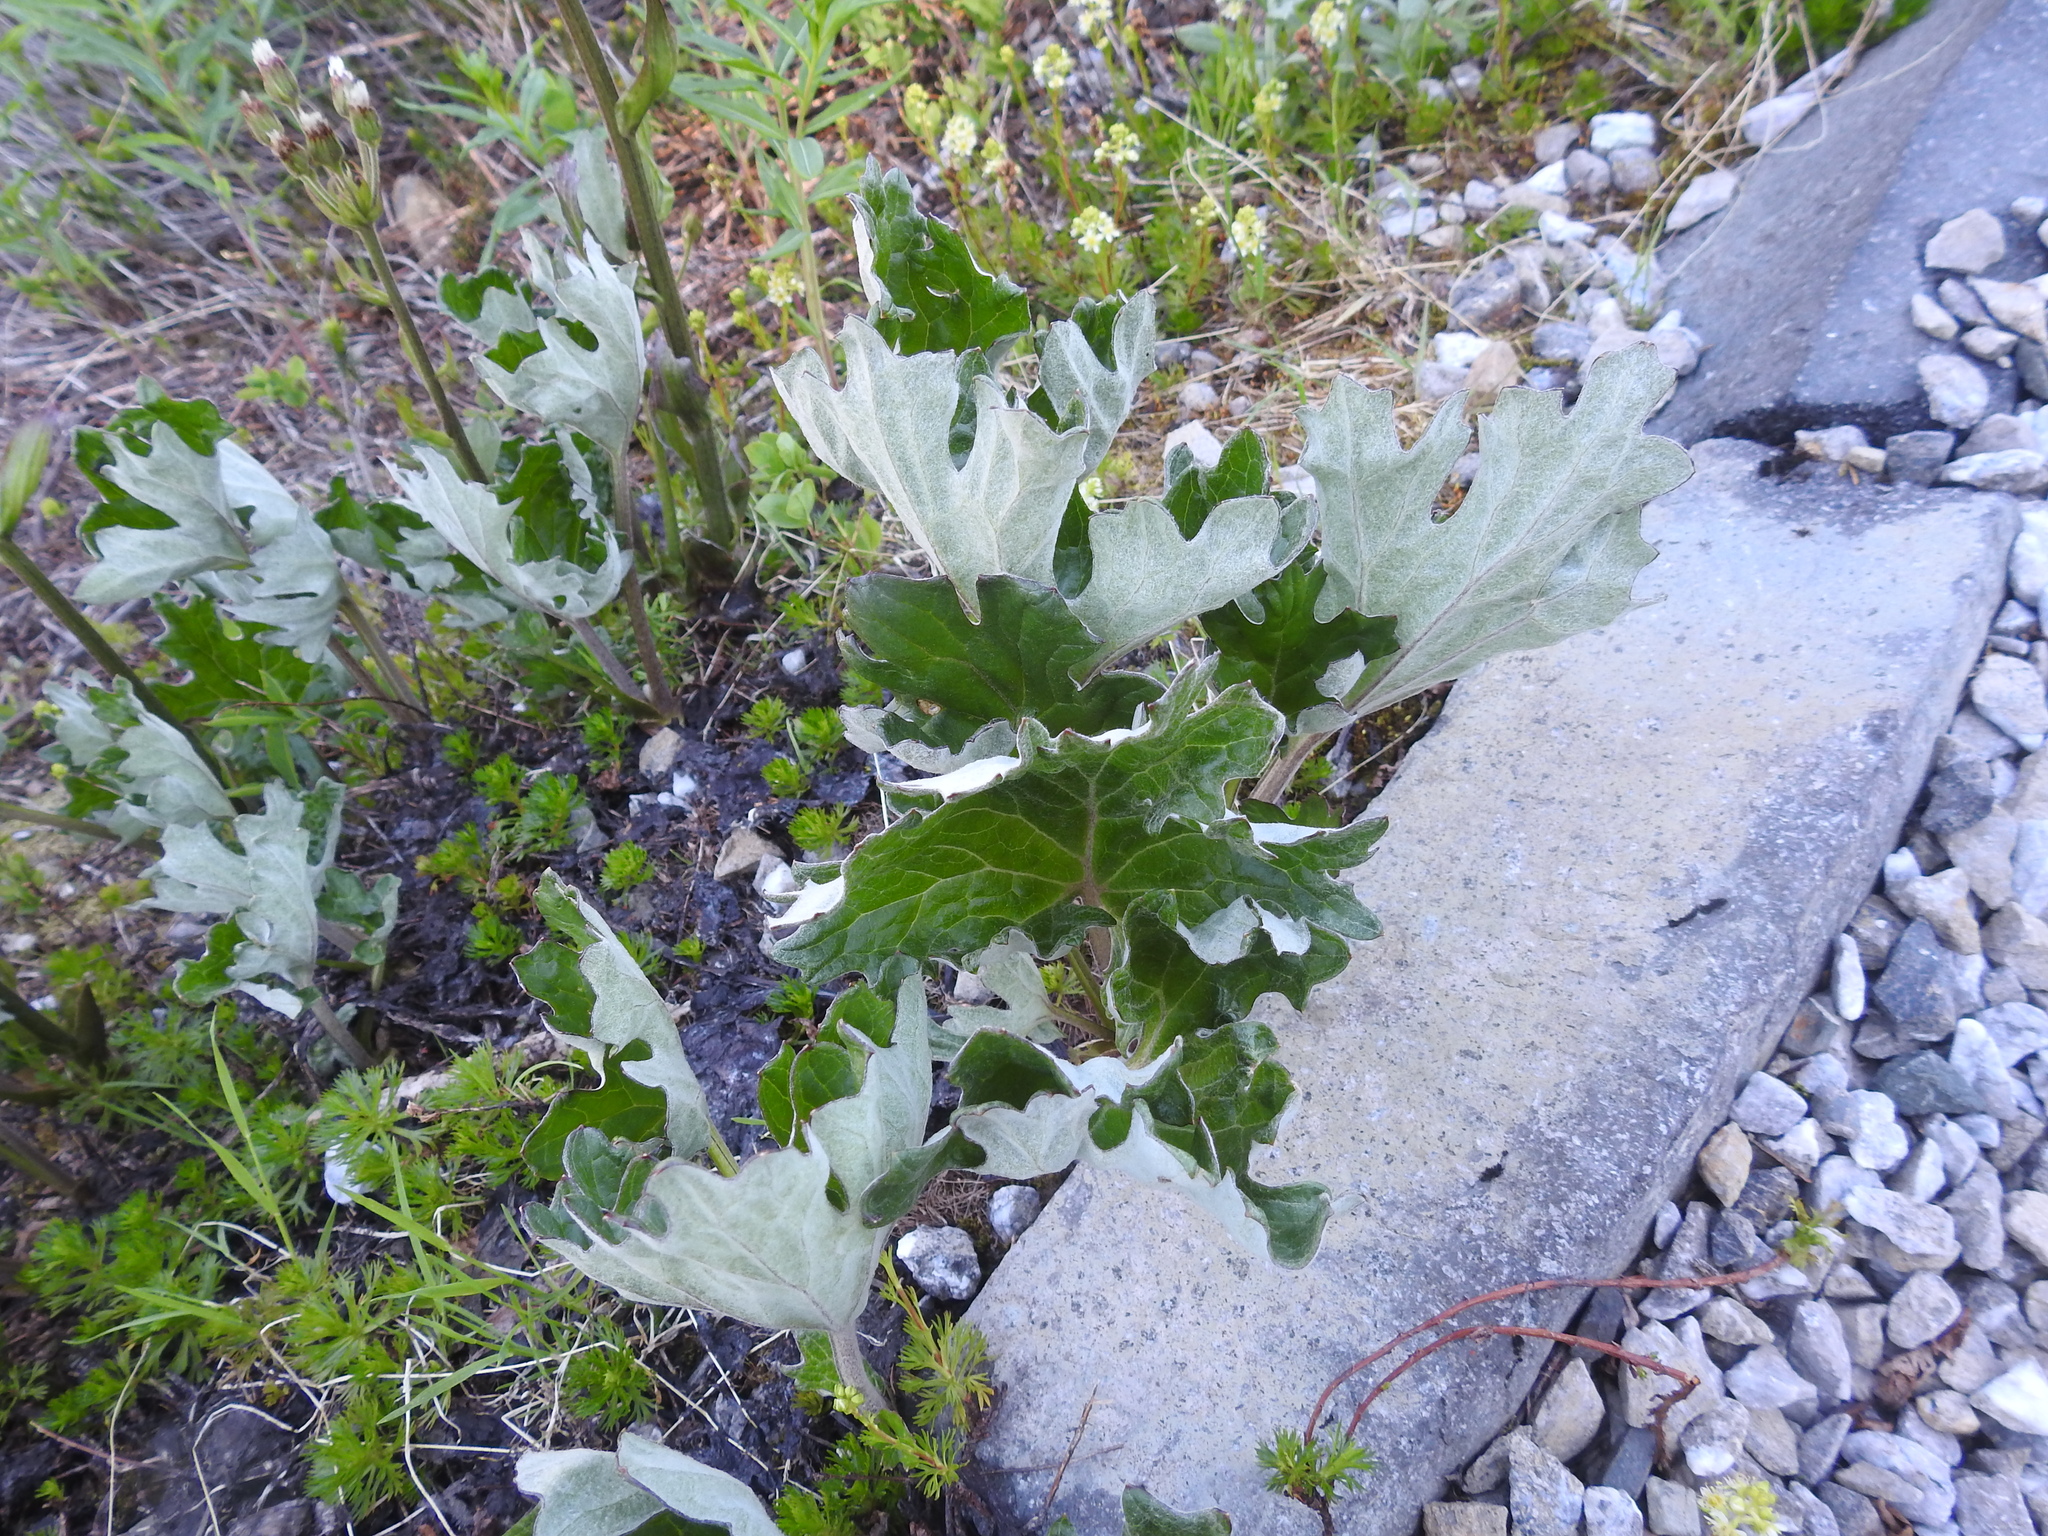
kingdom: Plantae
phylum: Tracheophyta
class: Magnoliopsida
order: Asterales
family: Asteraceae
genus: Petasites
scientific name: Petasites frigidus
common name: Arctic butterbur
